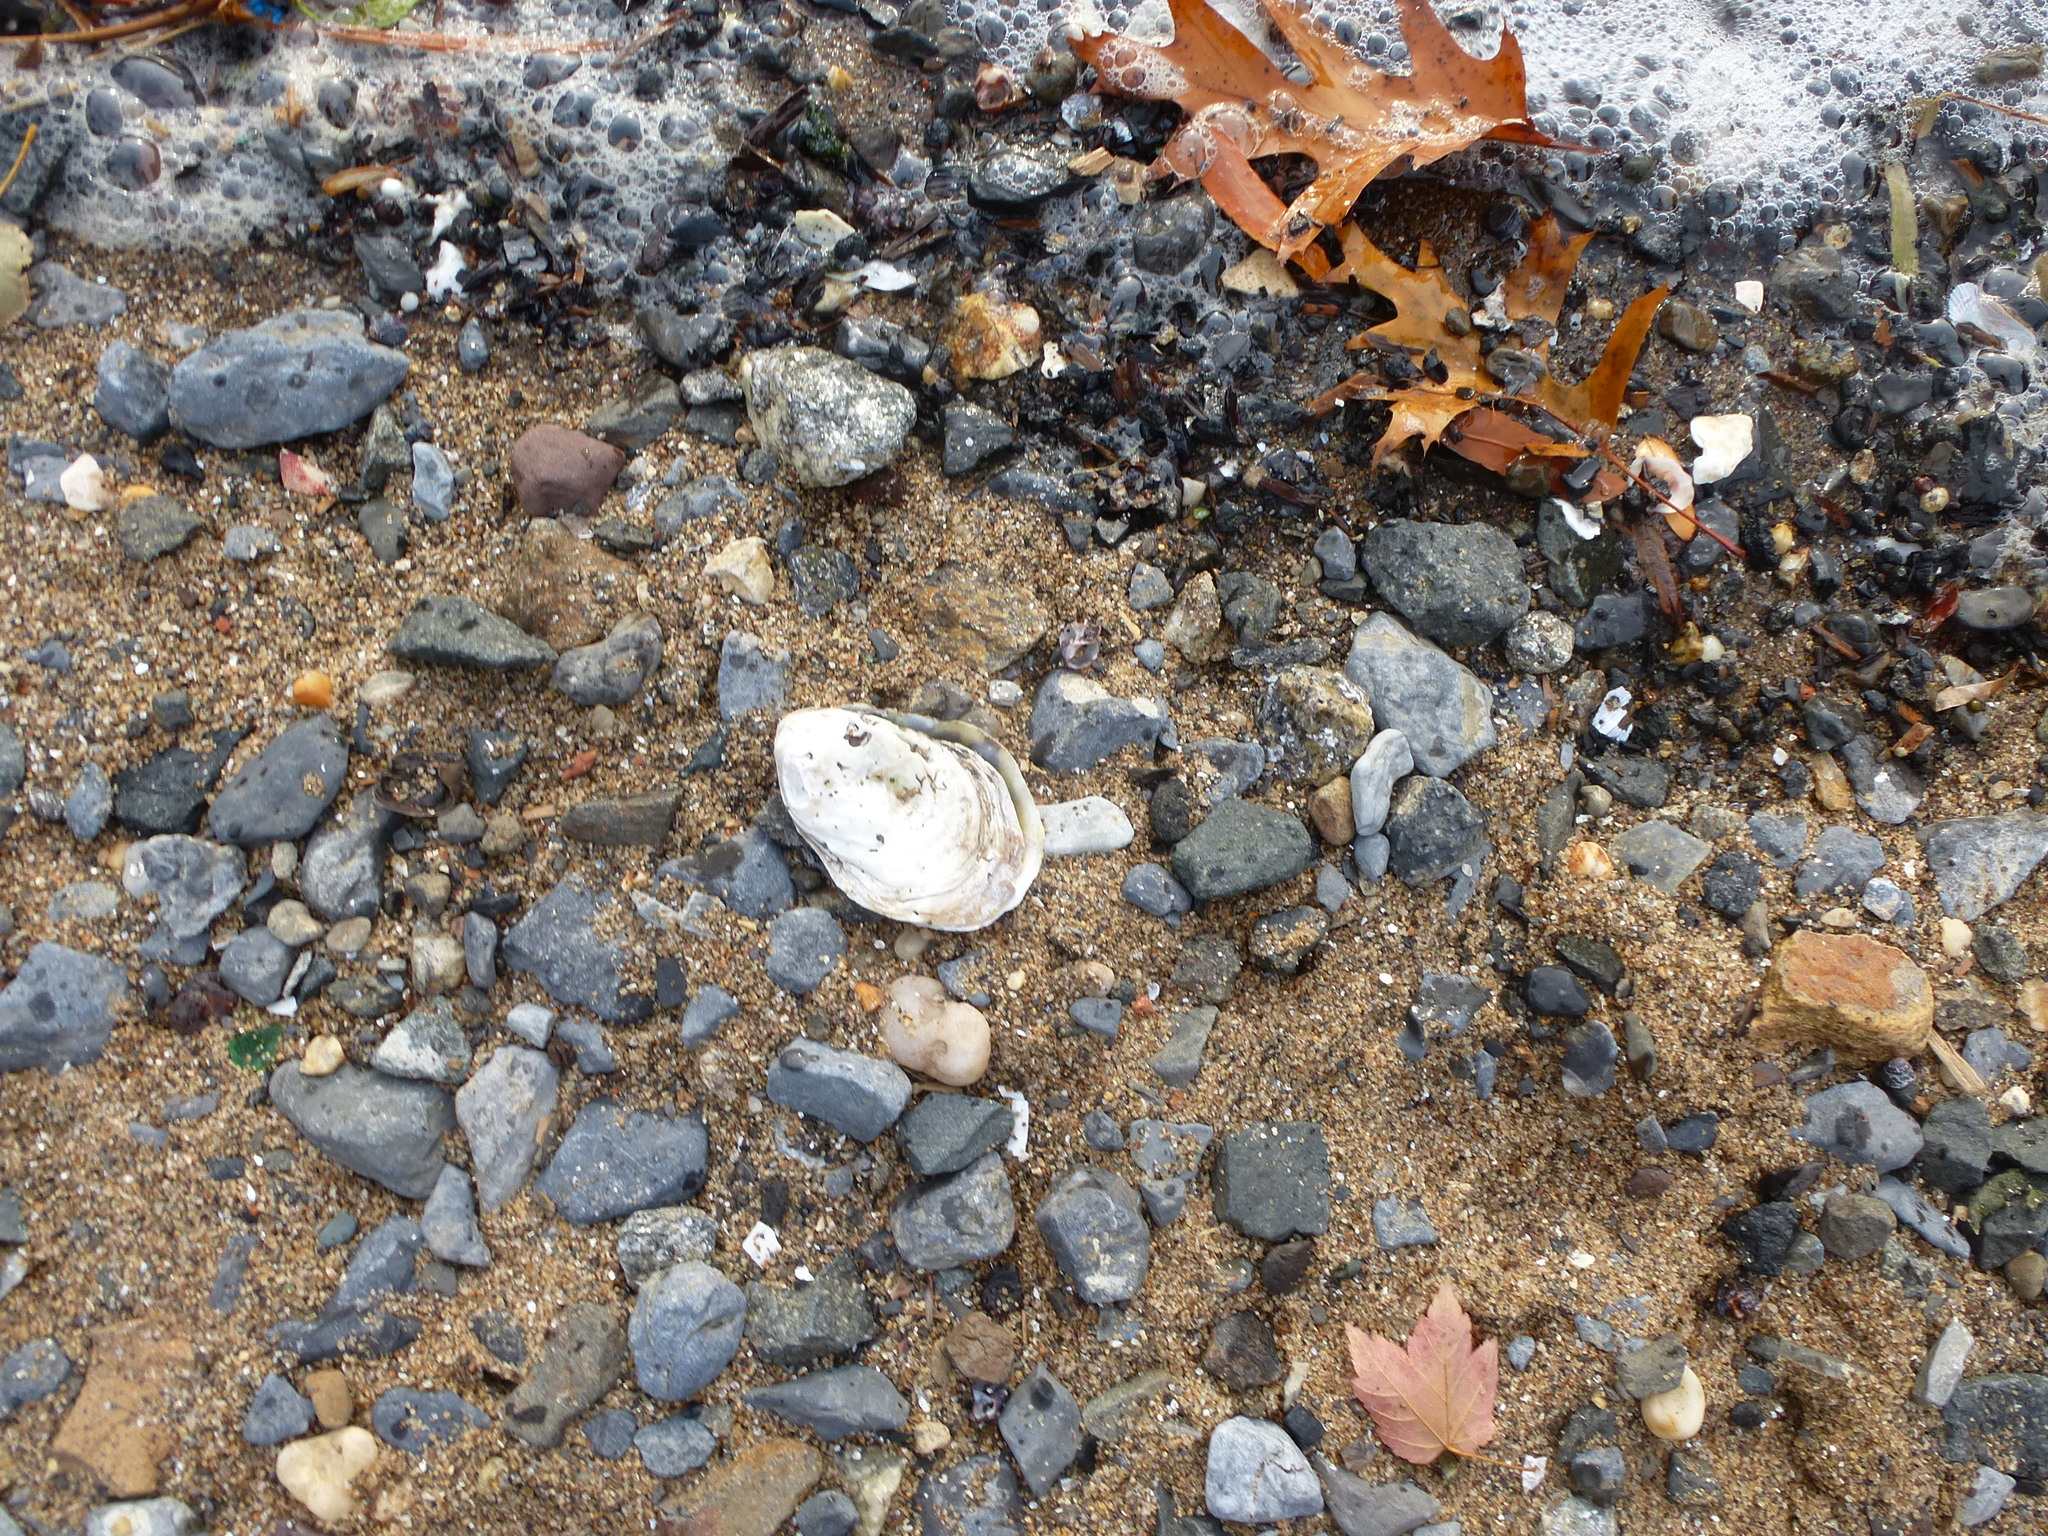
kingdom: Animalia
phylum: Mollusca
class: Bivalvia
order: Ostreida
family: Ostreidae
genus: Crassostrea
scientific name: Crassostrea virginica
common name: American oyster
